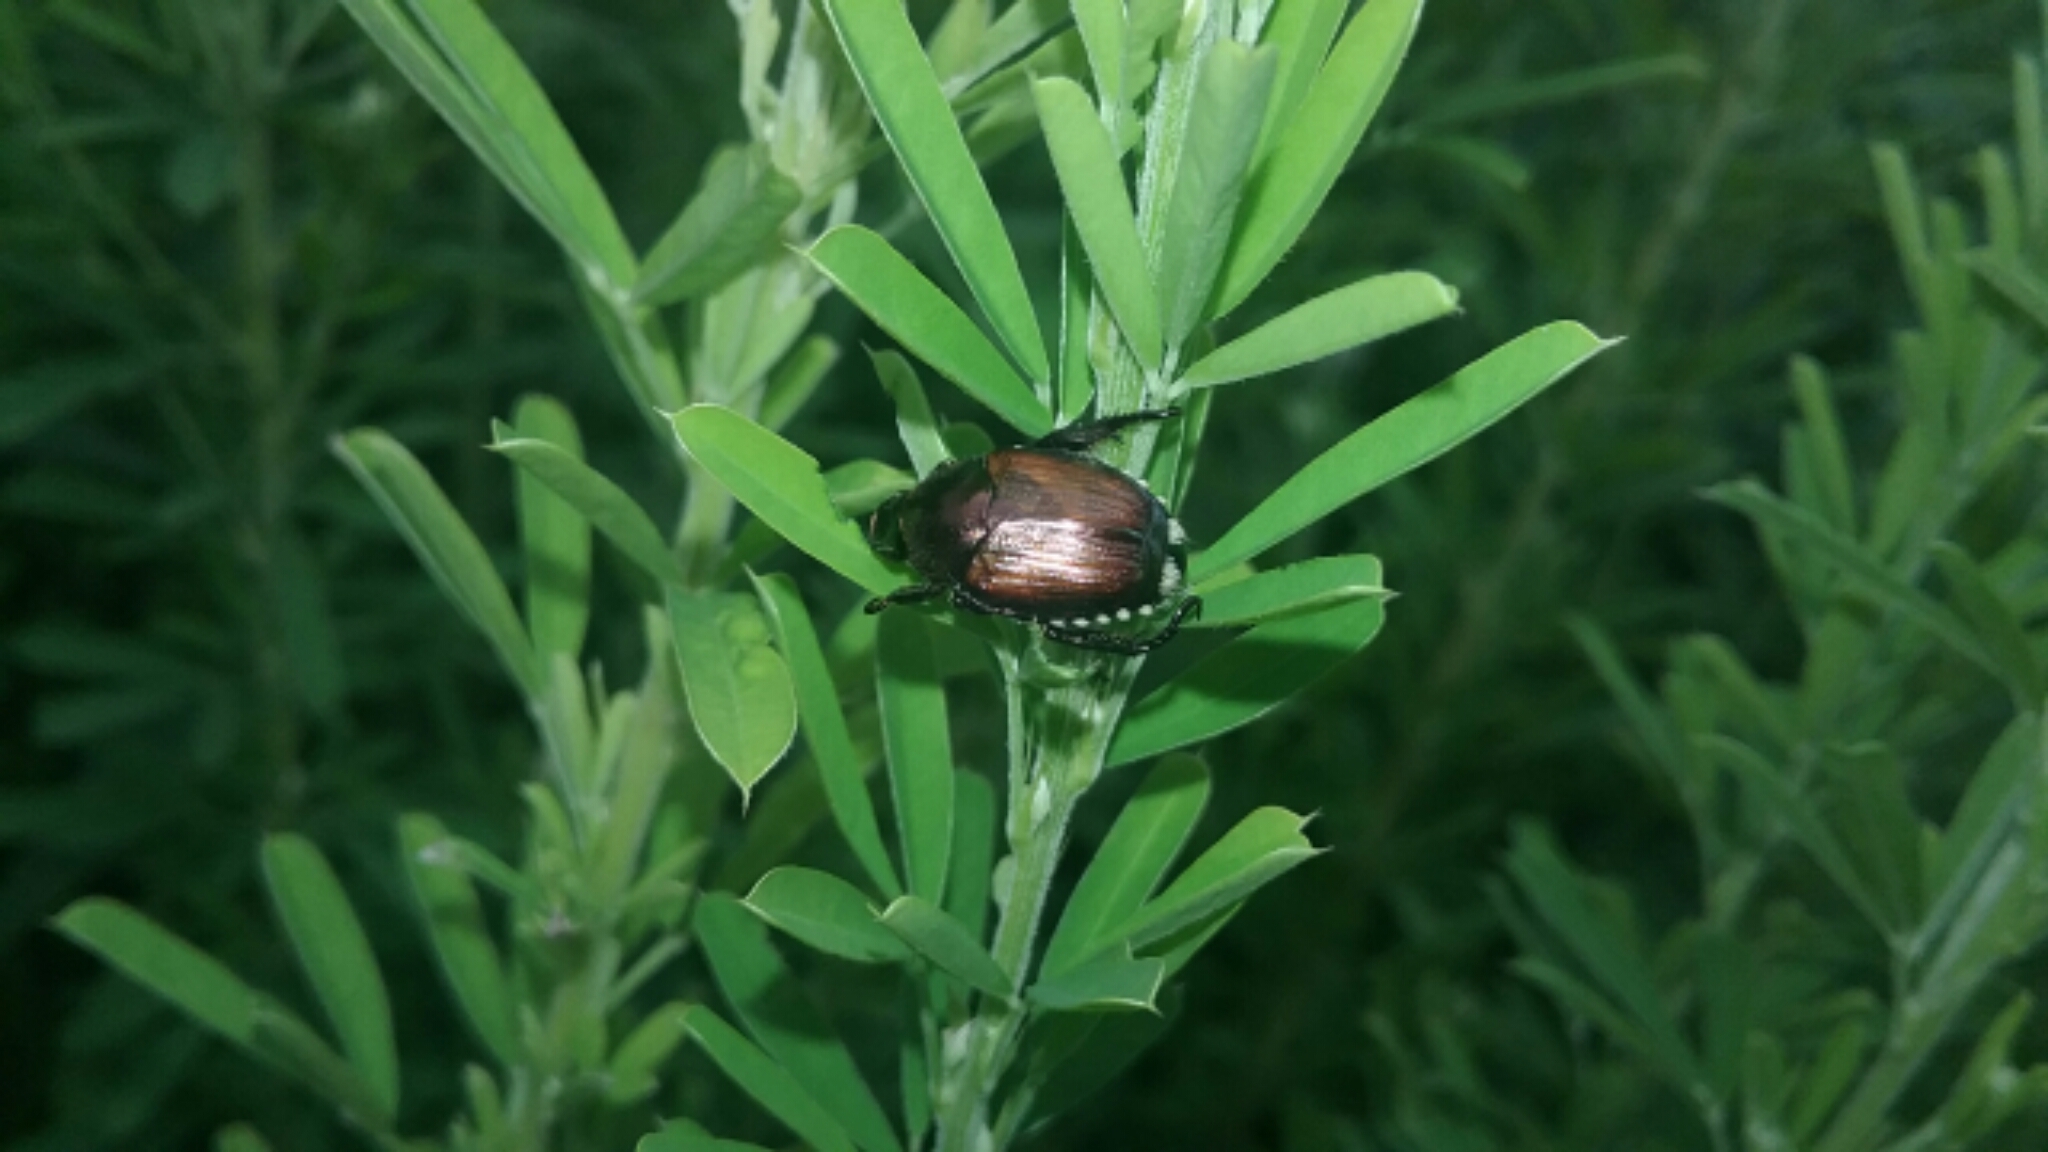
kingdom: Animalia
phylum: Arthropoda
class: Insecta
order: Coleoptera
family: Scarabaeidae
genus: Popillia
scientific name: Popillia japonica
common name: Japanese beetle
